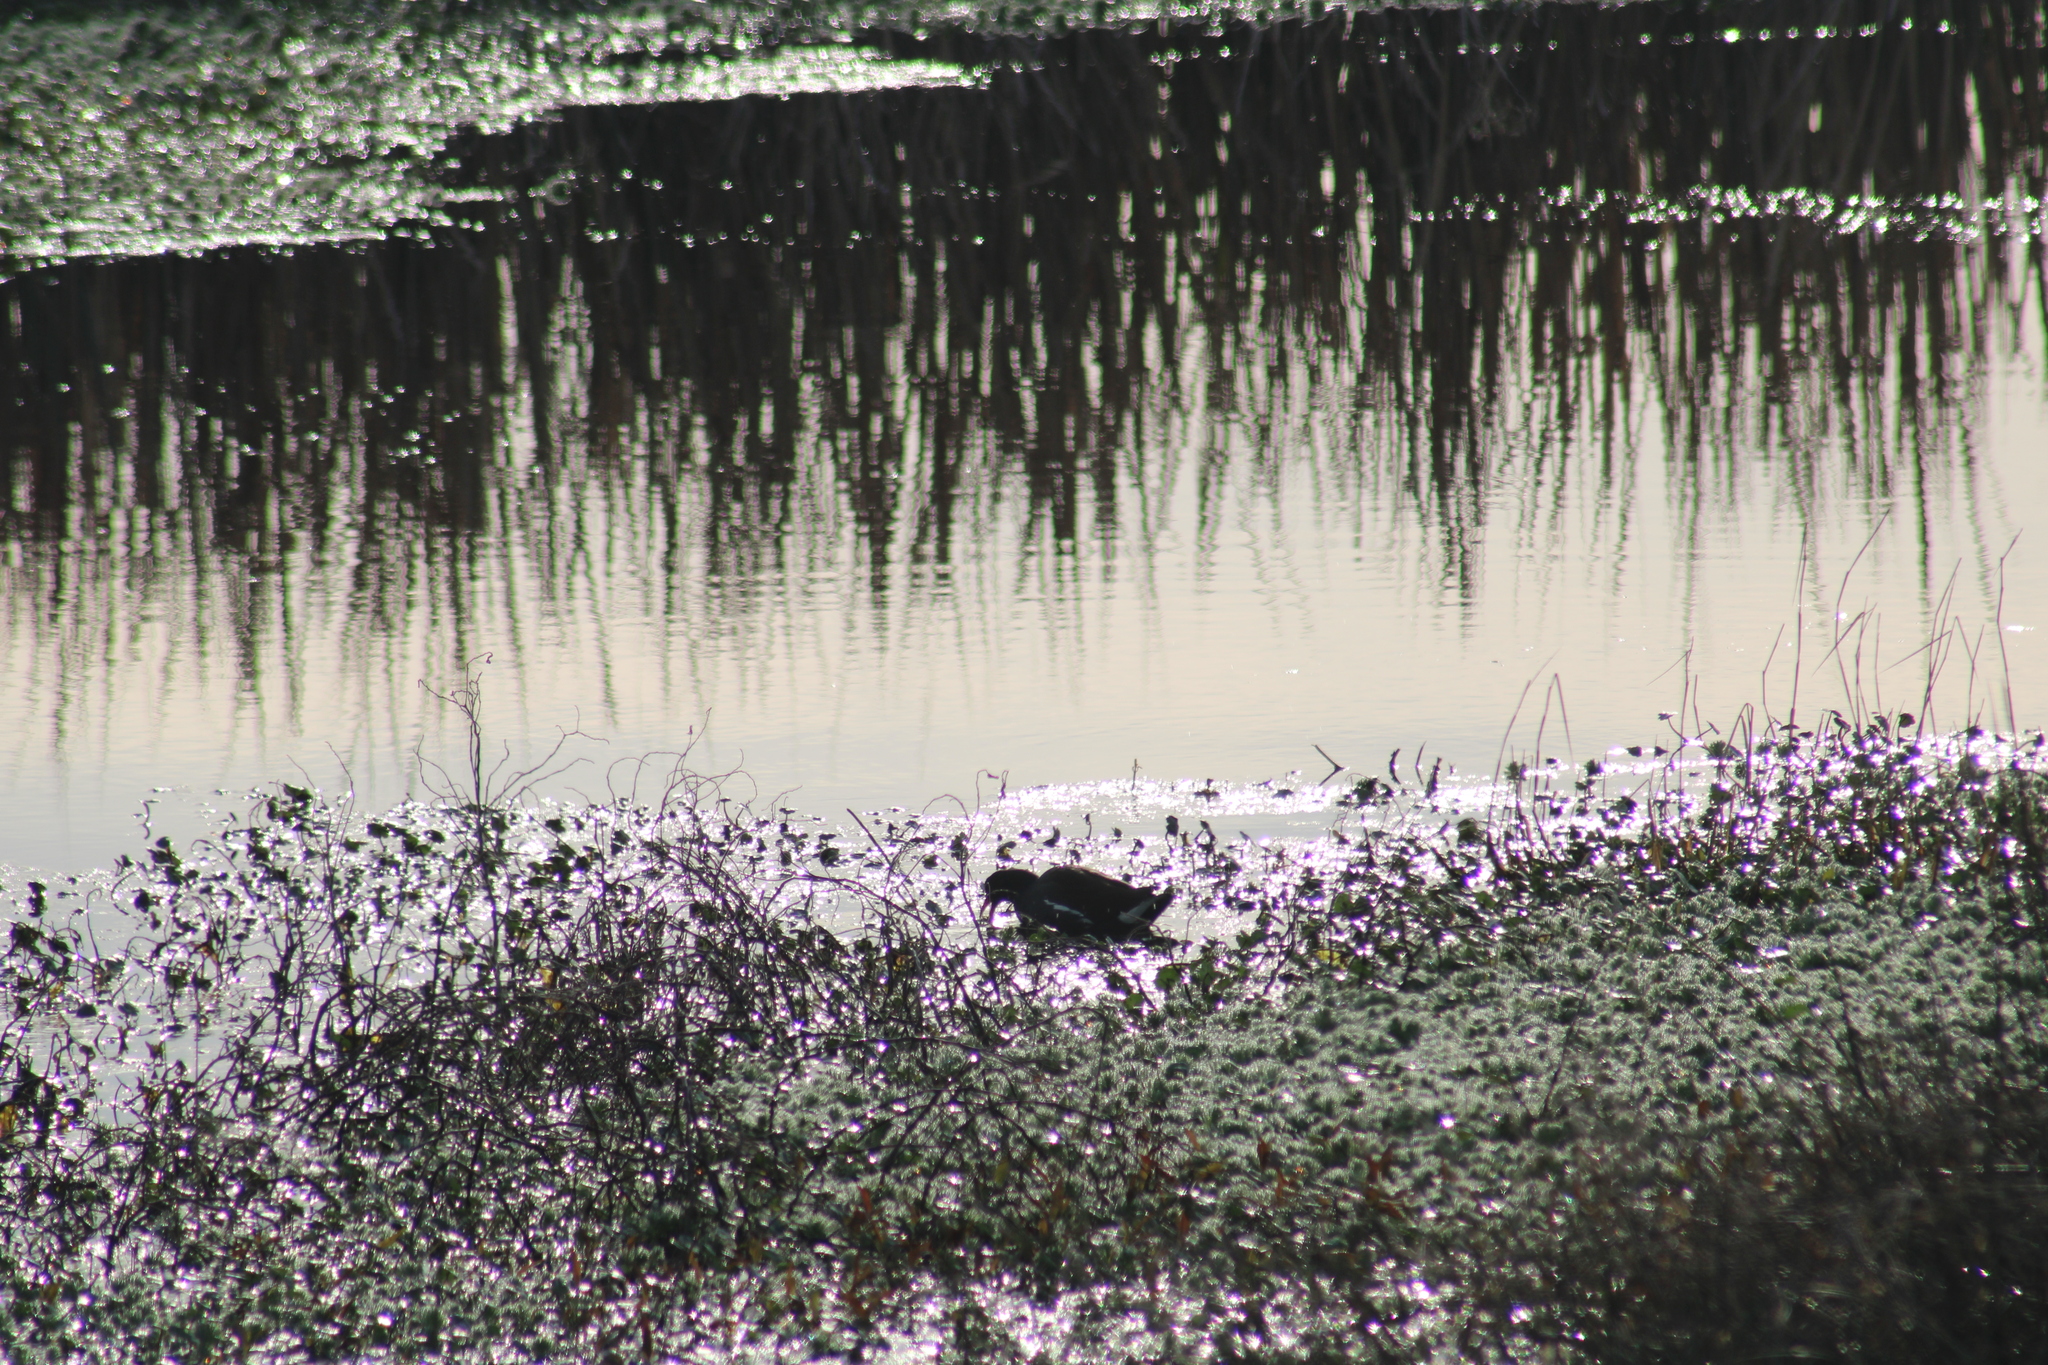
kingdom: Animalia
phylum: Chordata
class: Aves
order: Gruiformes
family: Rallidae
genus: Gallinula
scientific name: Gallinula chloropus
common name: Common moorhen
